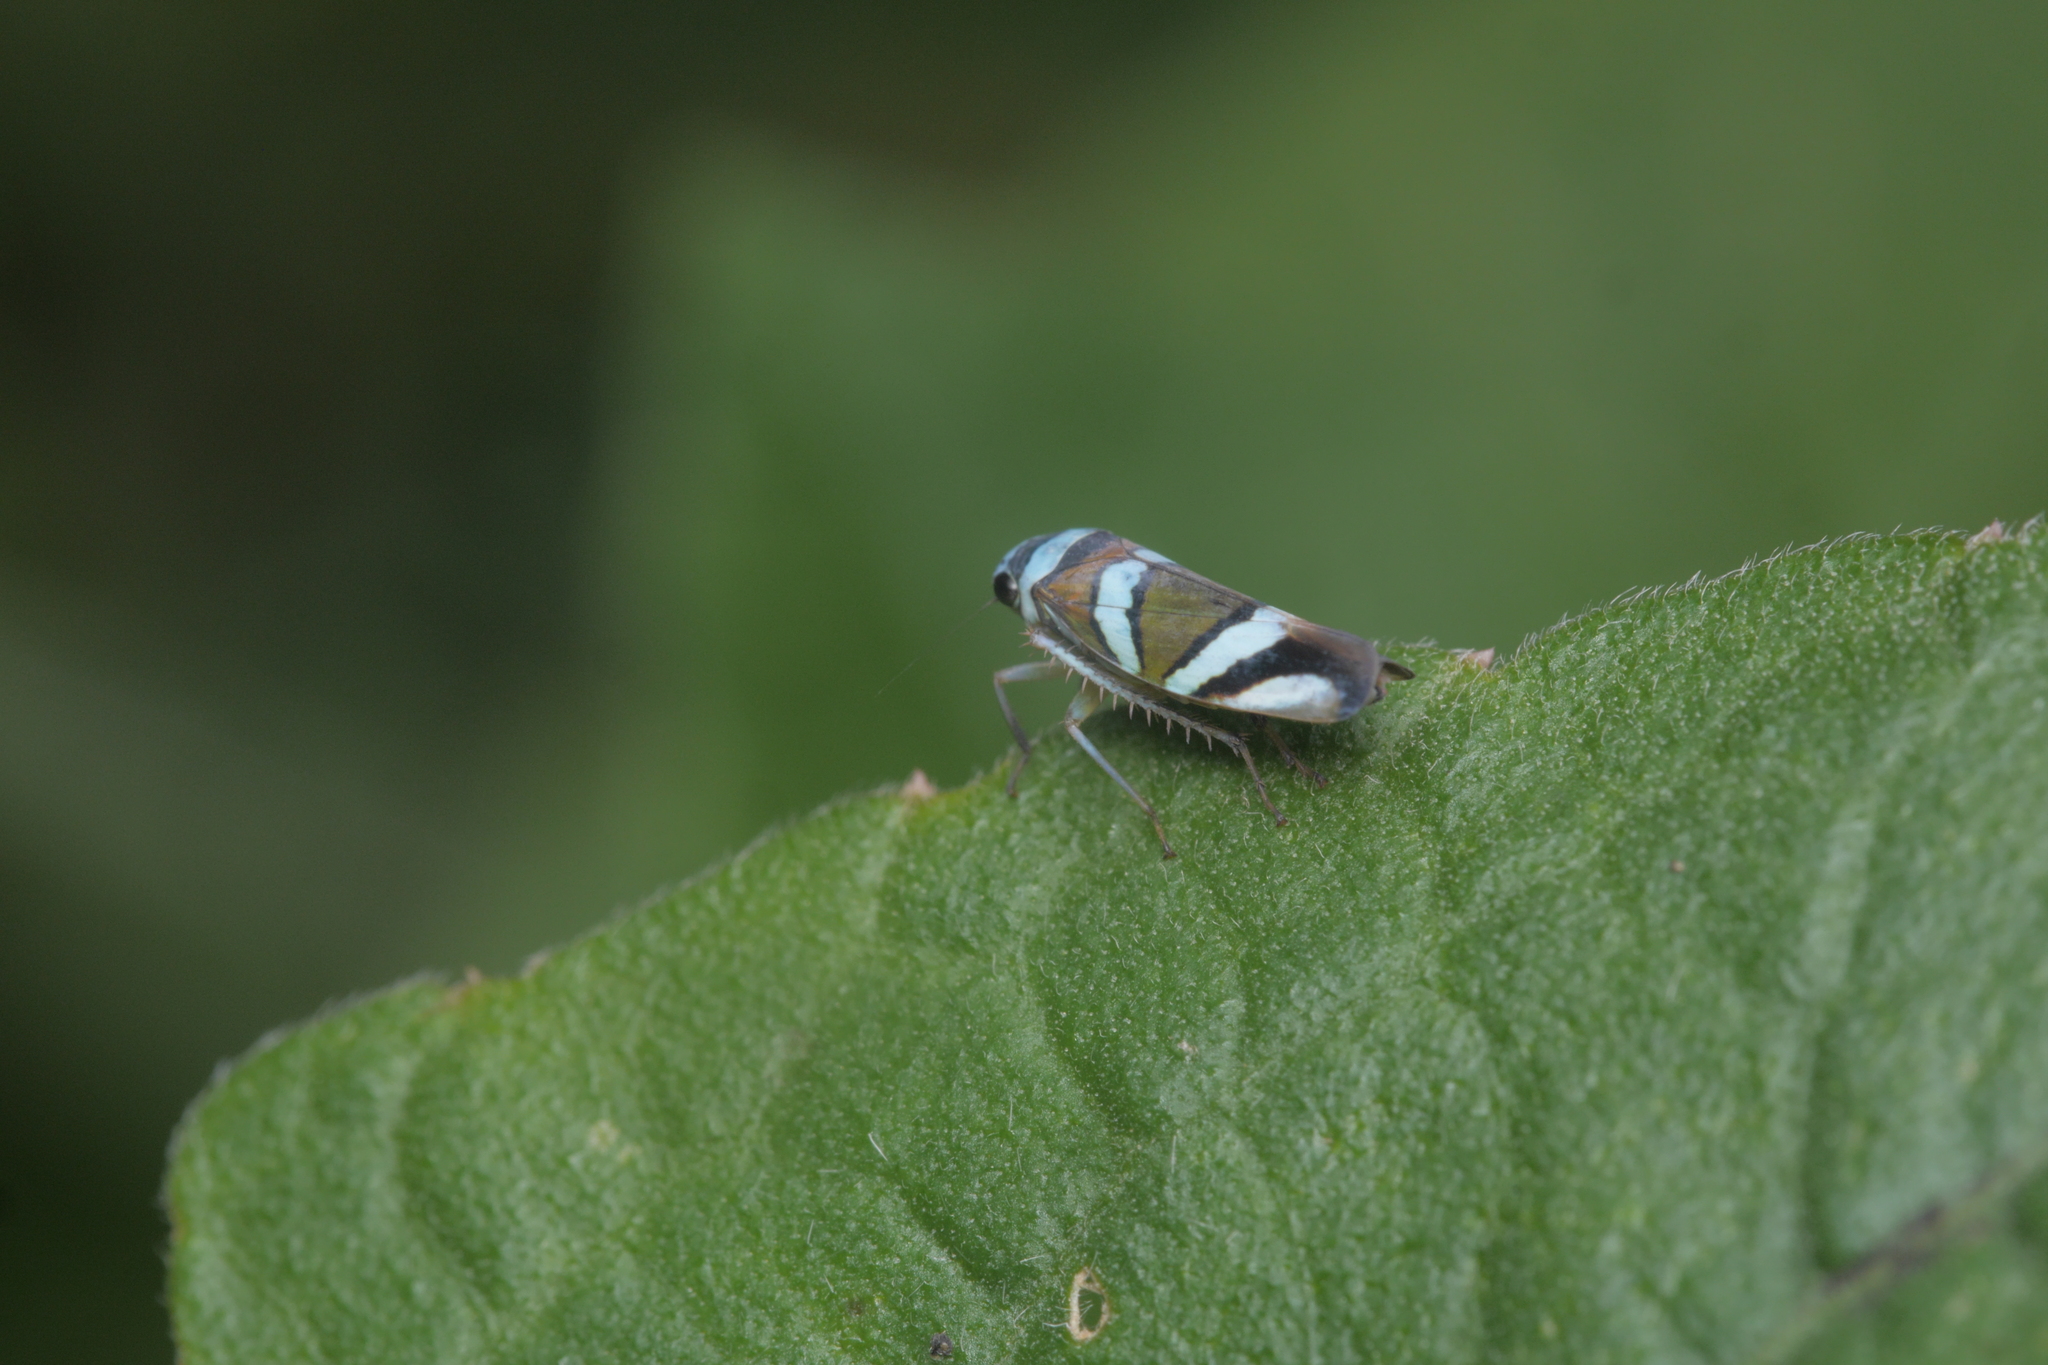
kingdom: Animalia
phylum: Arthropoda
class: Insecta
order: Hemiptera
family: Cicadellidae
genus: Macugonalia
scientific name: Macugonalia moesta
